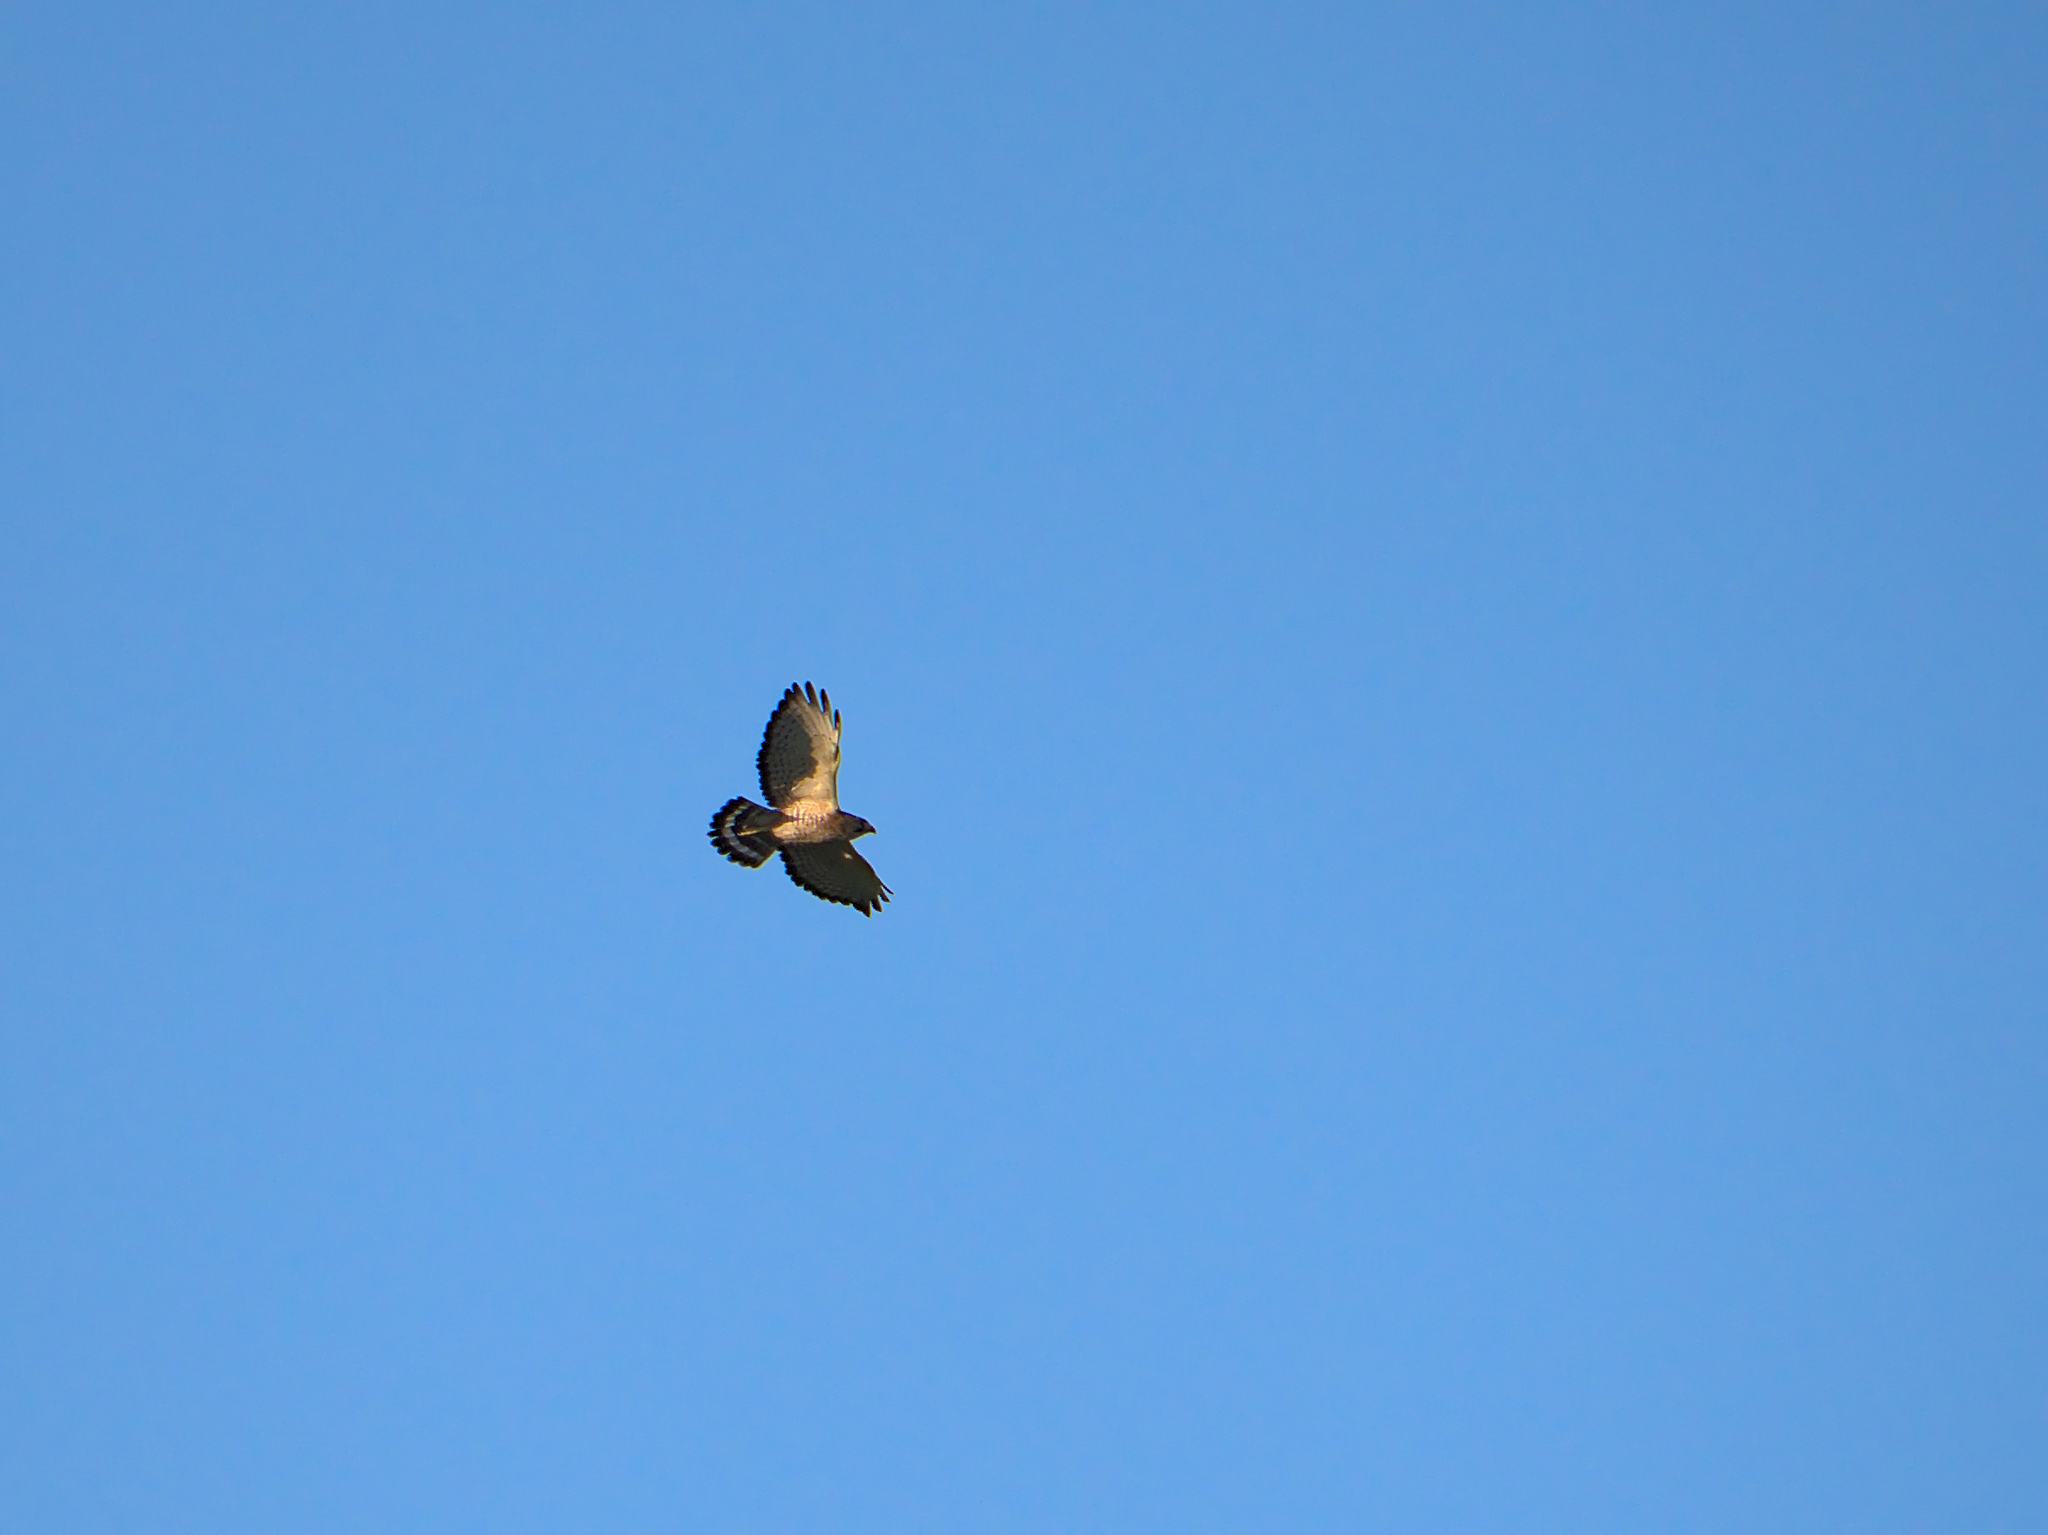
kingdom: Animalia
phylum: Chordata
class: Aves
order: Accipitriformes
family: Accipitridae
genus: Buteo
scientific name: Buteo platypterus
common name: Broad-winged hawk
